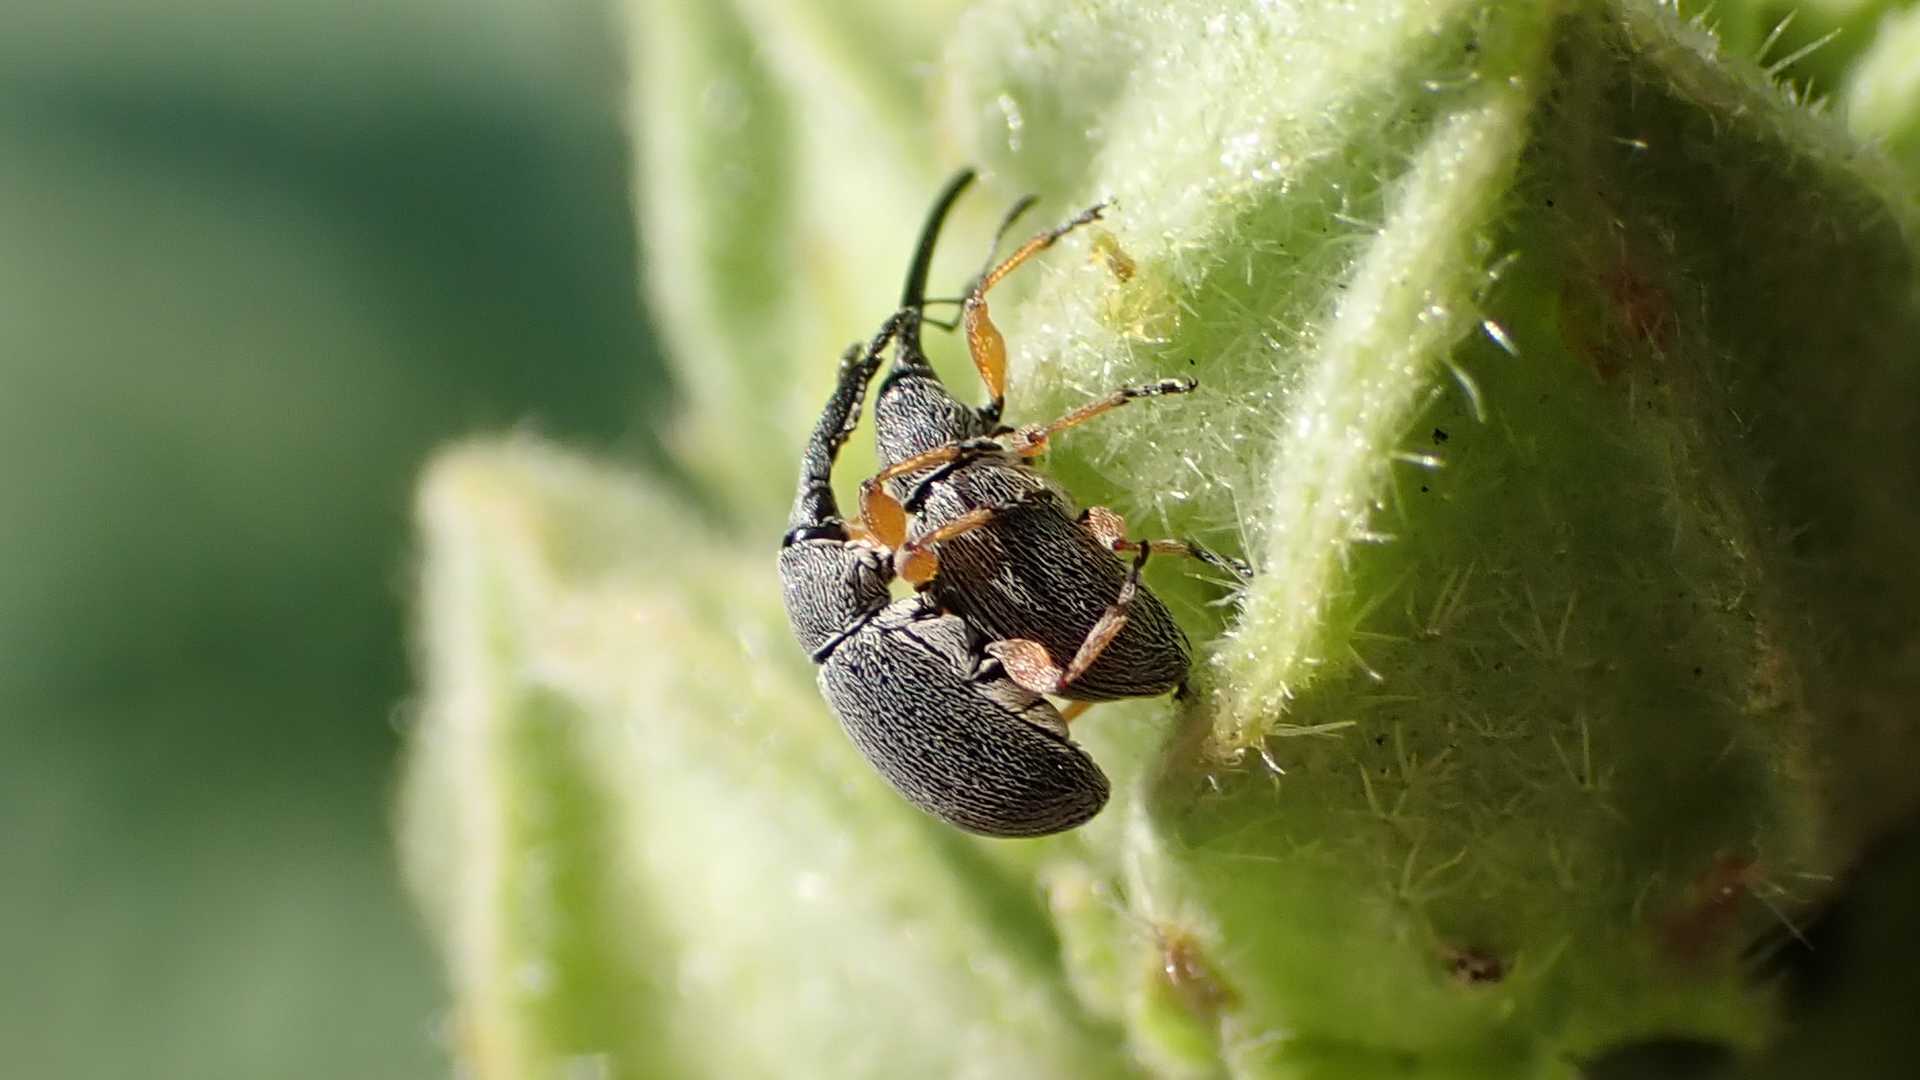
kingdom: Animalia
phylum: Arthropoda
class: Insecta
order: Coleoptera
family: Brentidae
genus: Rhopalapion
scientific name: Rhopalapion longirostre
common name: Hollyhock weevil
